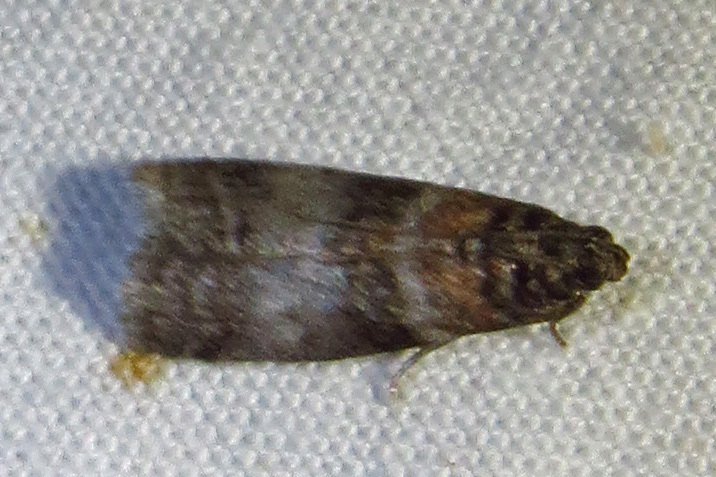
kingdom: Animalia
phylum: Arthropoda
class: Insecta
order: Lepidoptera
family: Pyralidae
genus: Sciota
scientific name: Sciota uvinella
